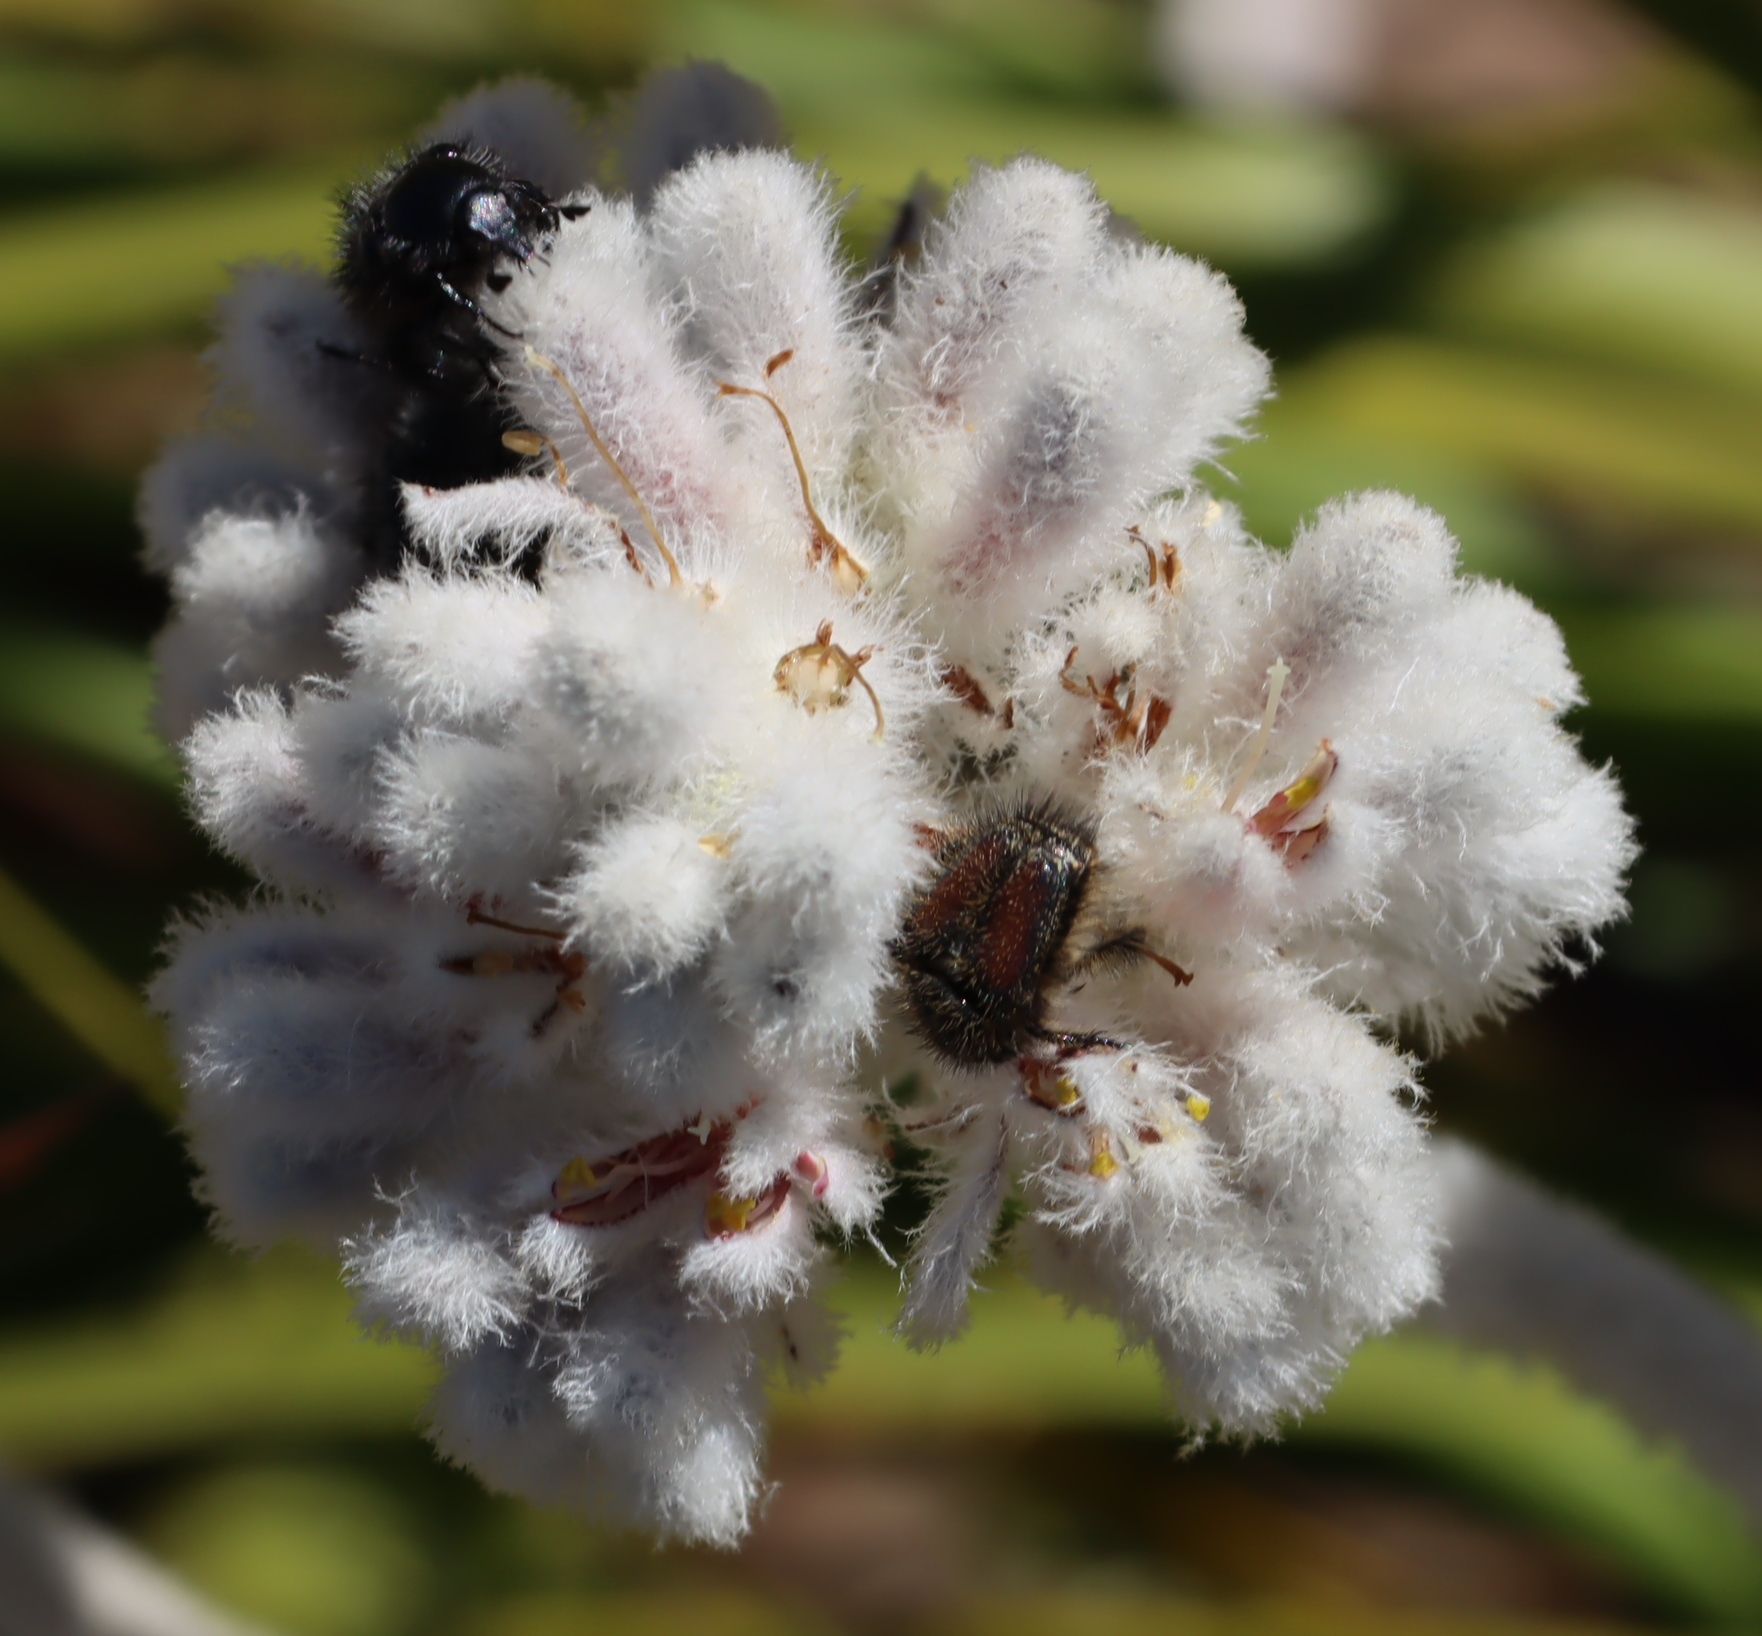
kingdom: Plantae
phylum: Tracheophyta
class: Liliopsida
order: Asparagales
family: Lanariaceae
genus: Lanaria
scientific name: Lanaria lanata
